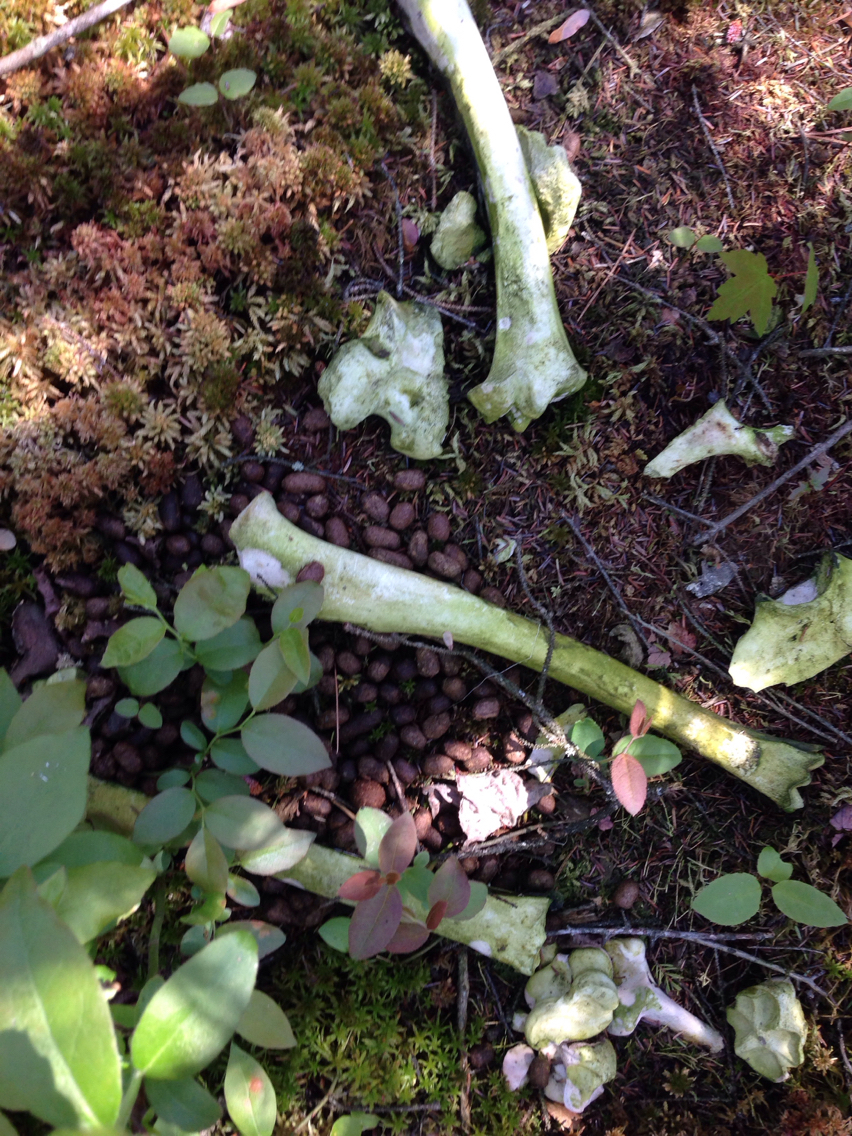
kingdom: Animalia
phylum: Chordata
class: Mammalia
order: Artiodactyla
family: Cervidae
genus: Odocoileus
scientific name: Odocoileus virginianus
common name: White-tailed deer
